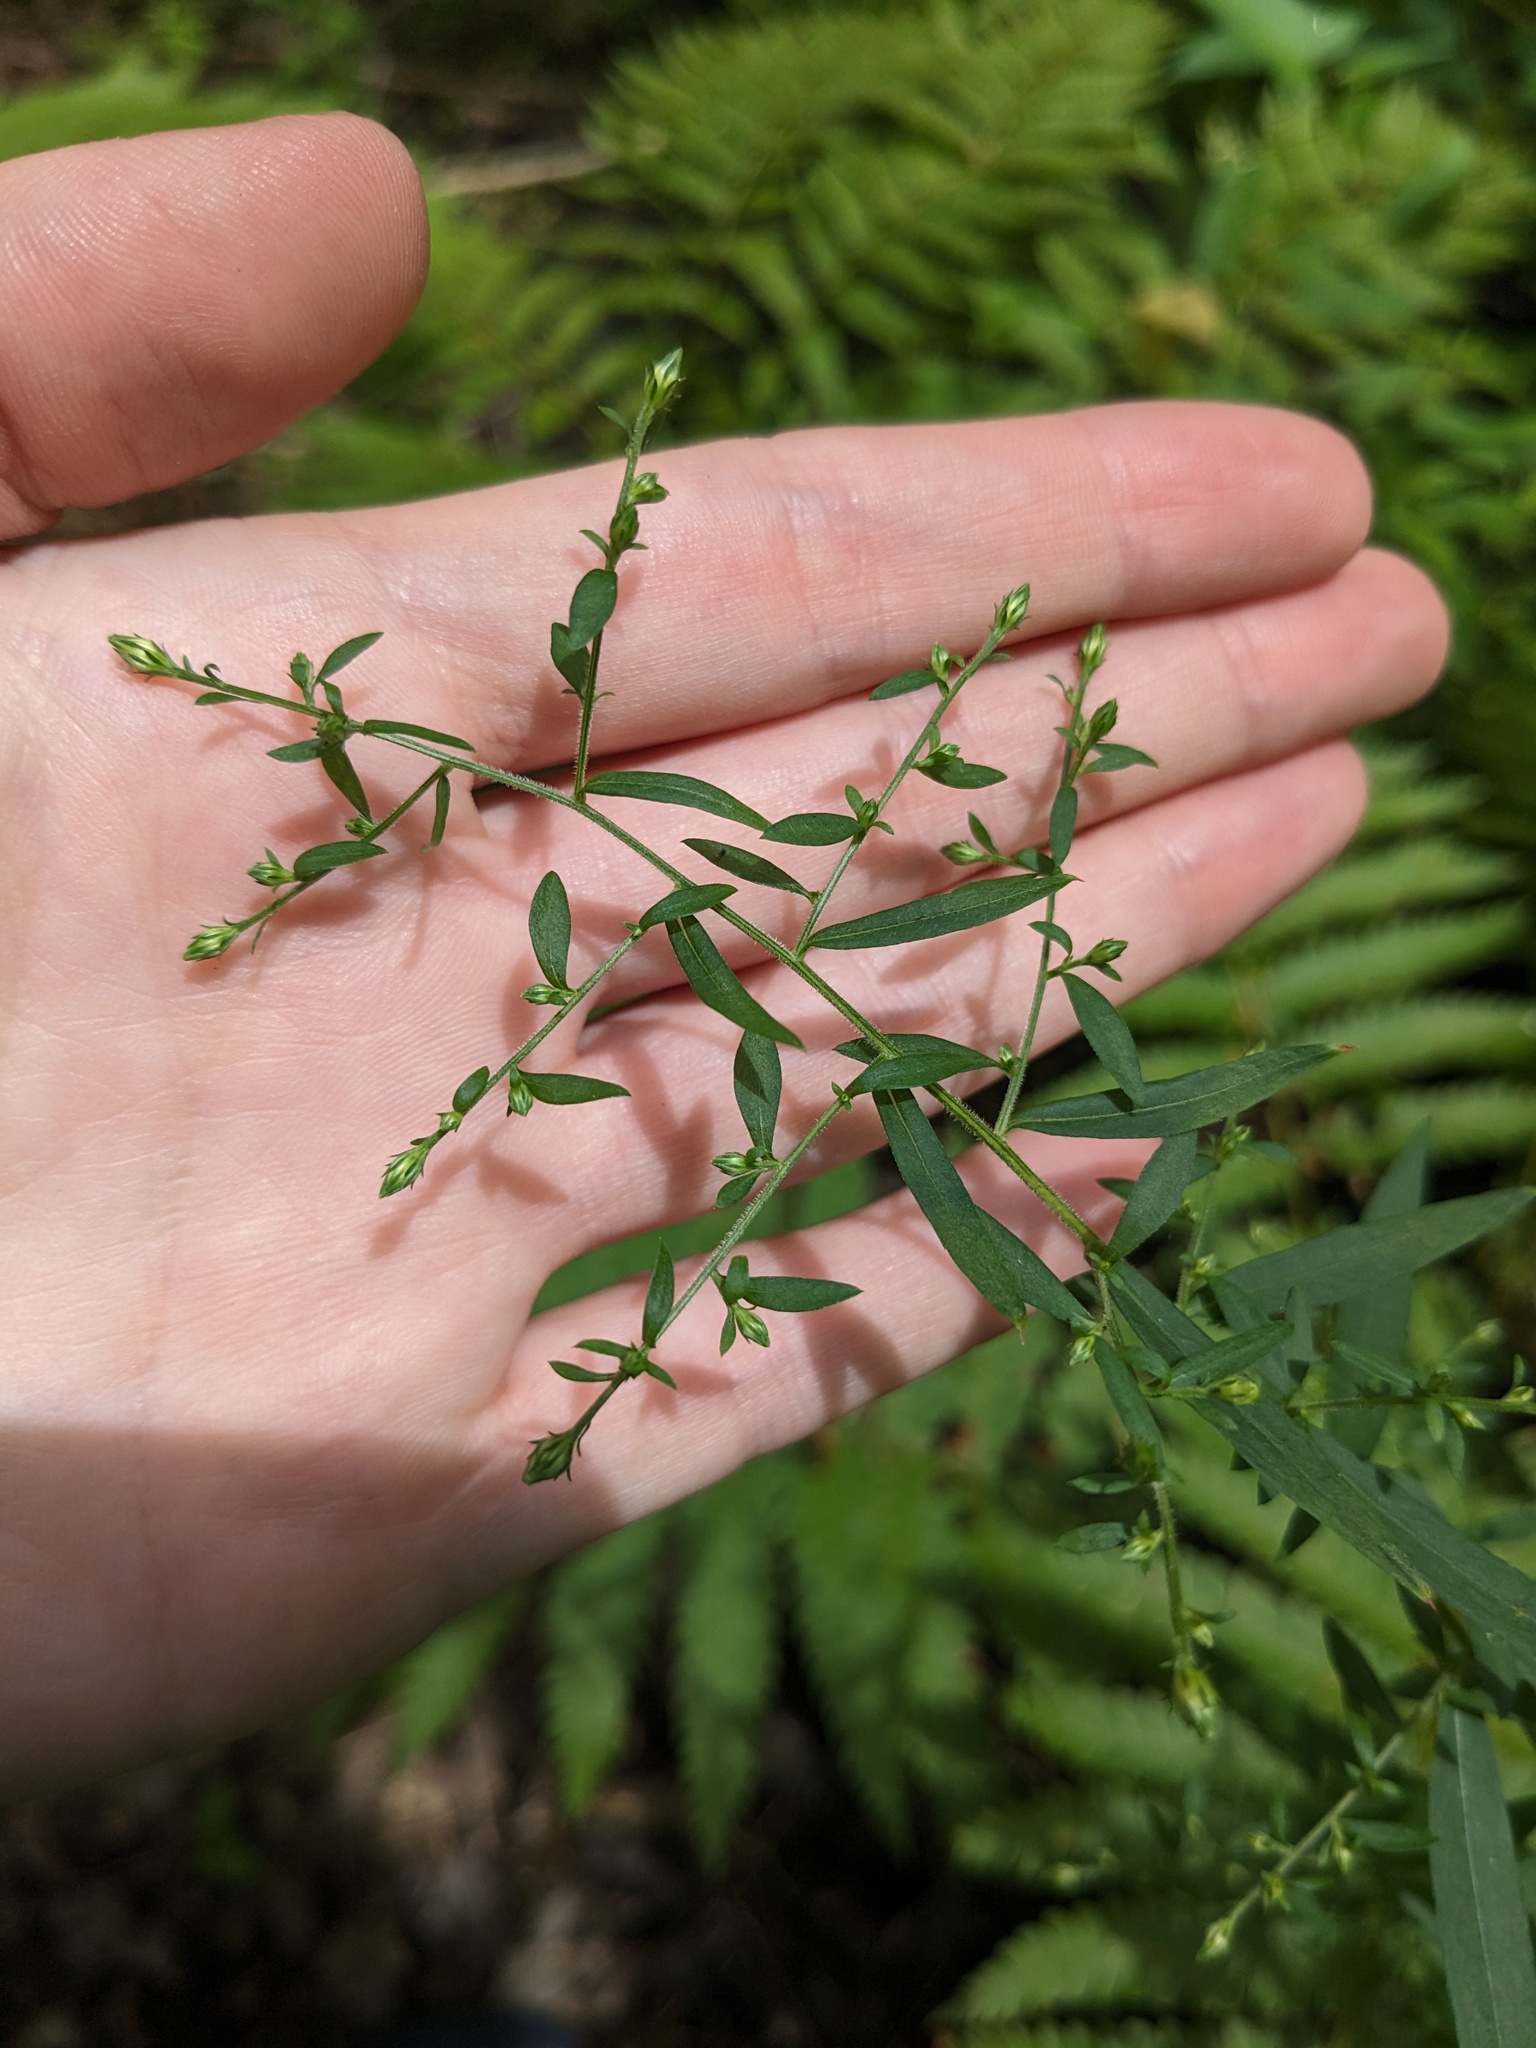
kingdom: Plantae
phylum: Tracheophyta
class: Magnoliopsida
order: Asterales
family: Asteraceae
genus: Symphyotrichum
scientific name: Symphyotrichum lateriflorum
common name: Calico aster
